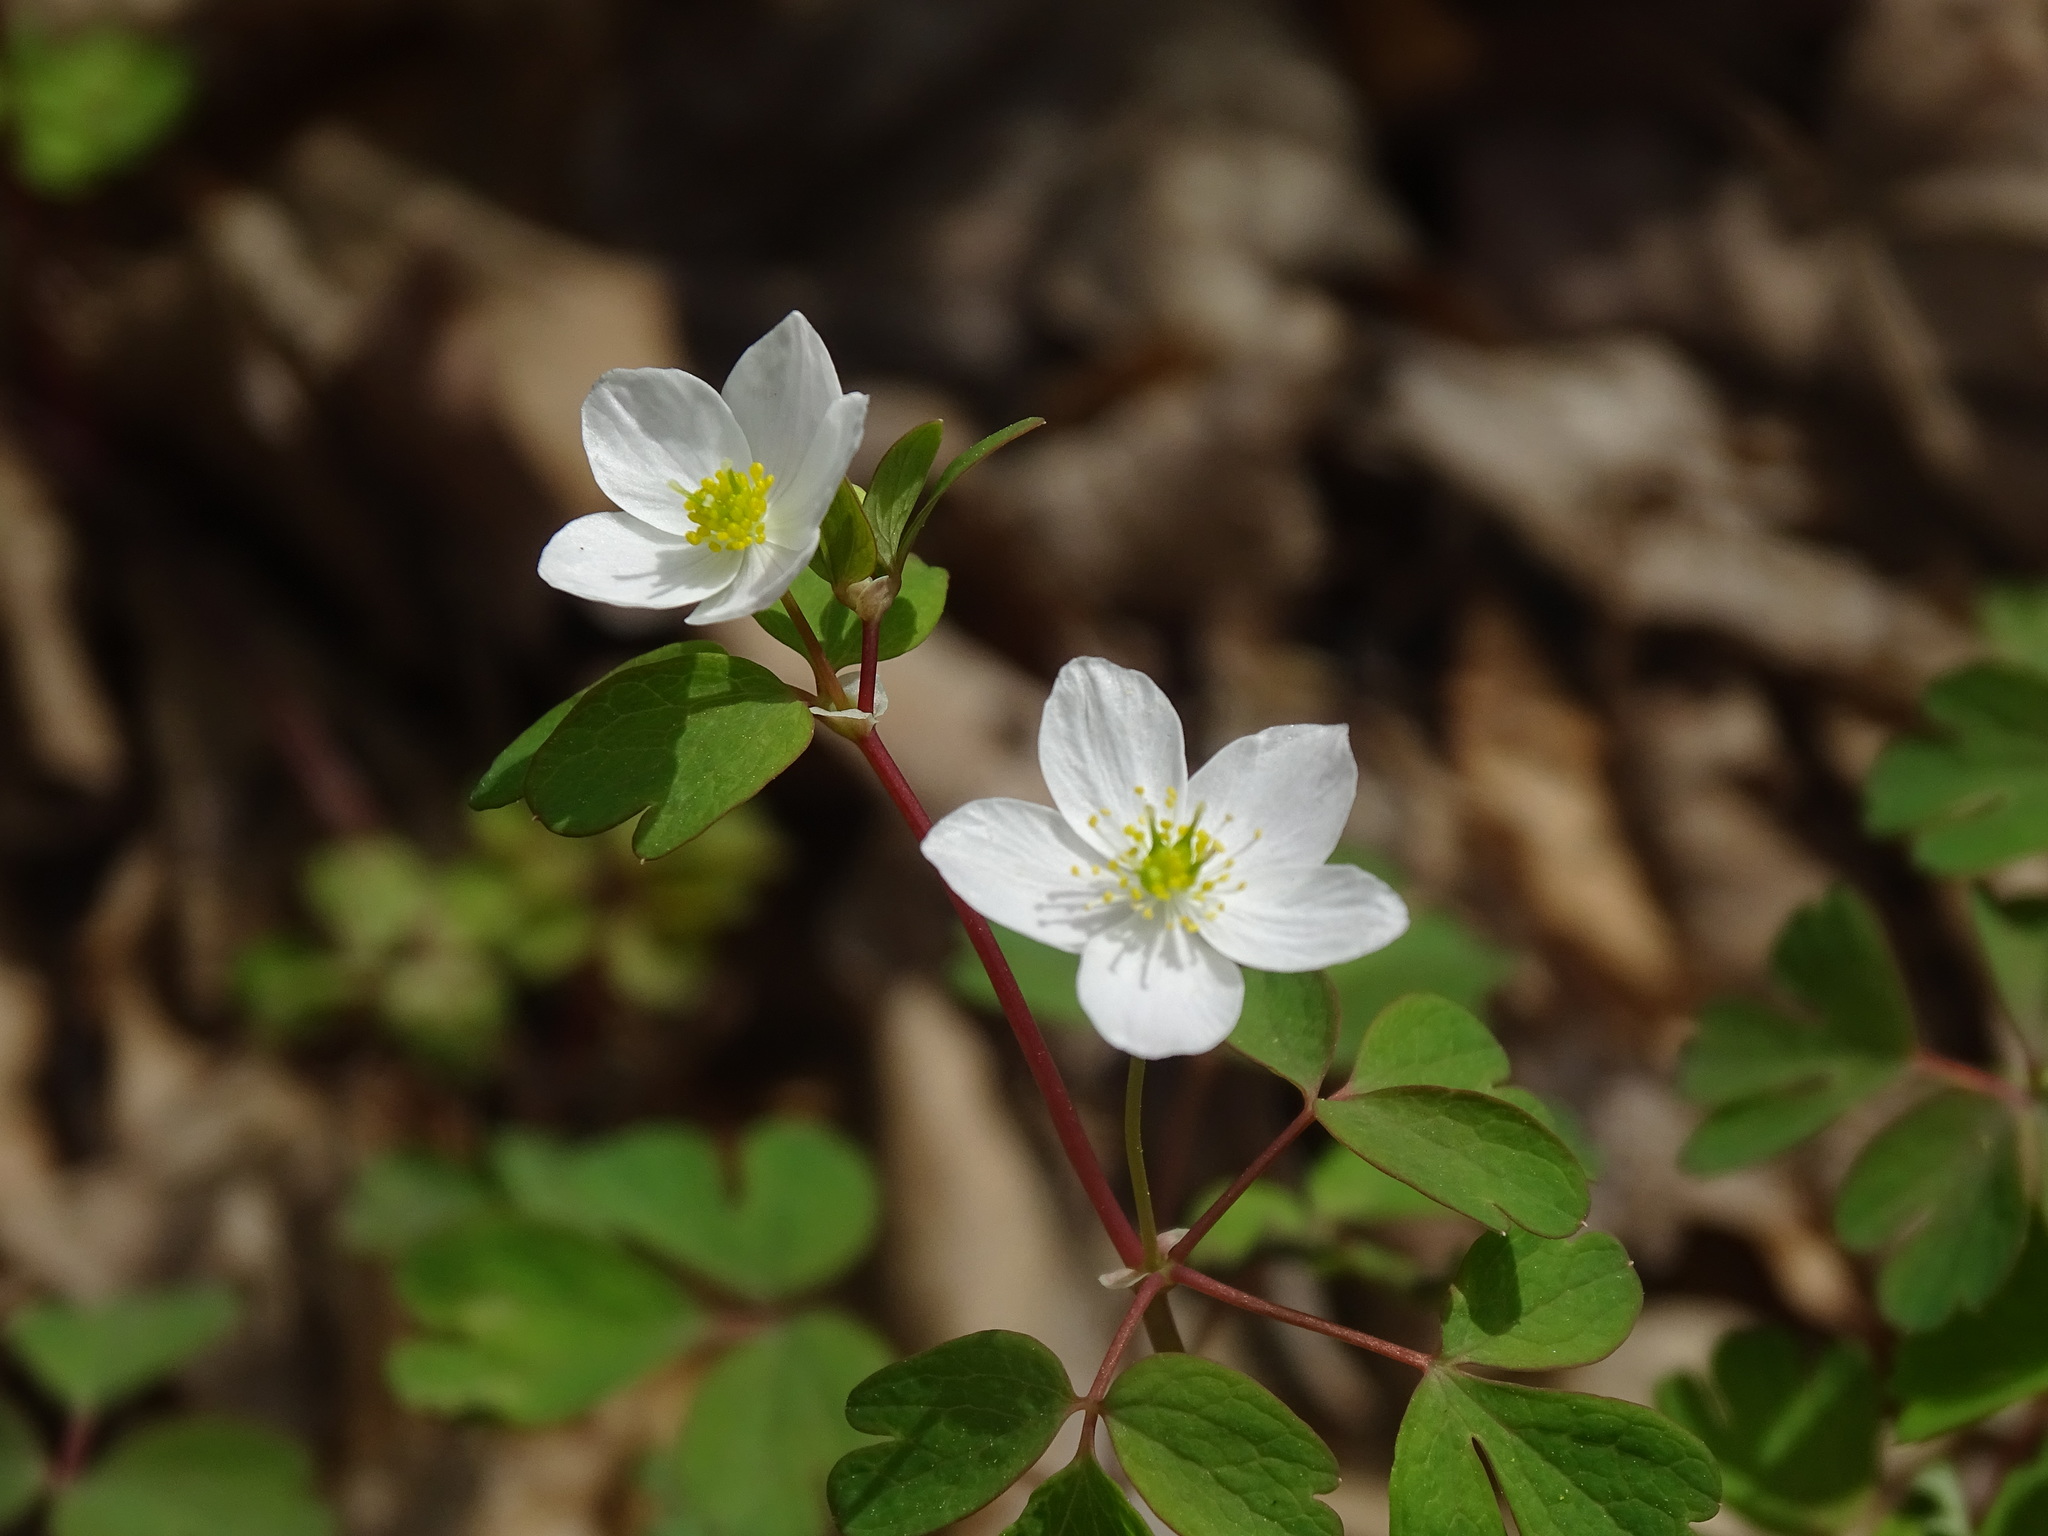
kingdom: Plantae
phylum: Tracheophyta
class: Magnoliopsida
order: Ranunculales
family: Ranunculaceae
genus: Enemion
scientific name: Enemion biternatum
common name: Eastern false rue-anemone
